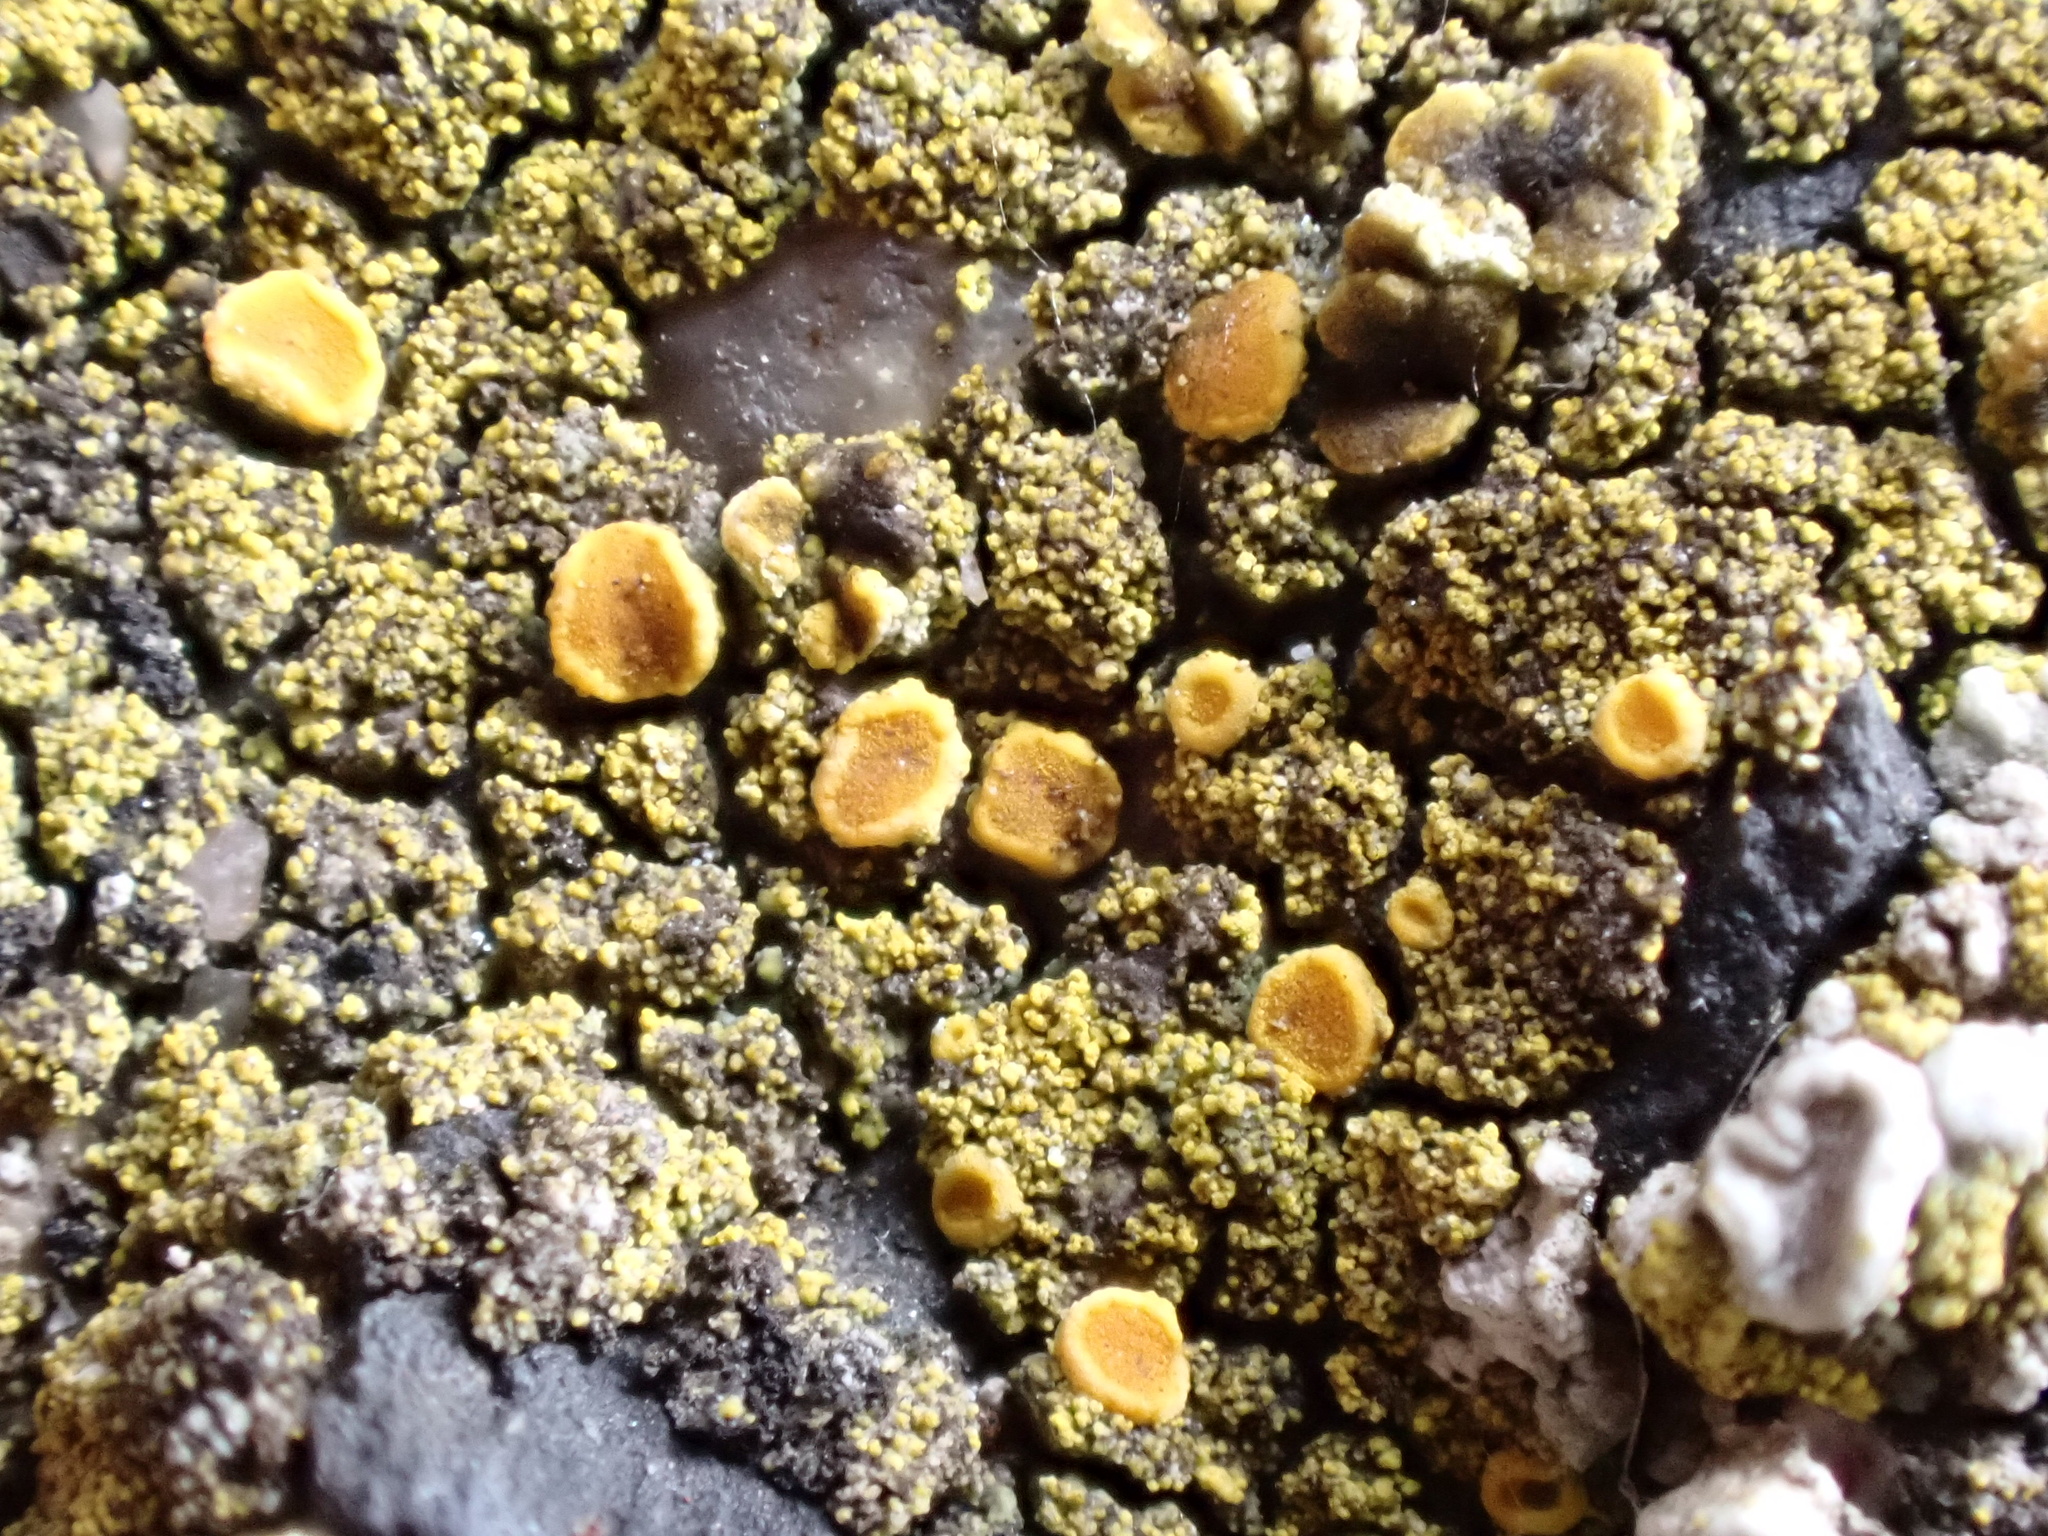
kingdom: Fungi
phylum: Ascomycota
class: Lecanoromycetes
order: Teloschistales
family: Teloschistaceae
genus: Flavoplaca
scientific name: Flavoplaca arcis
